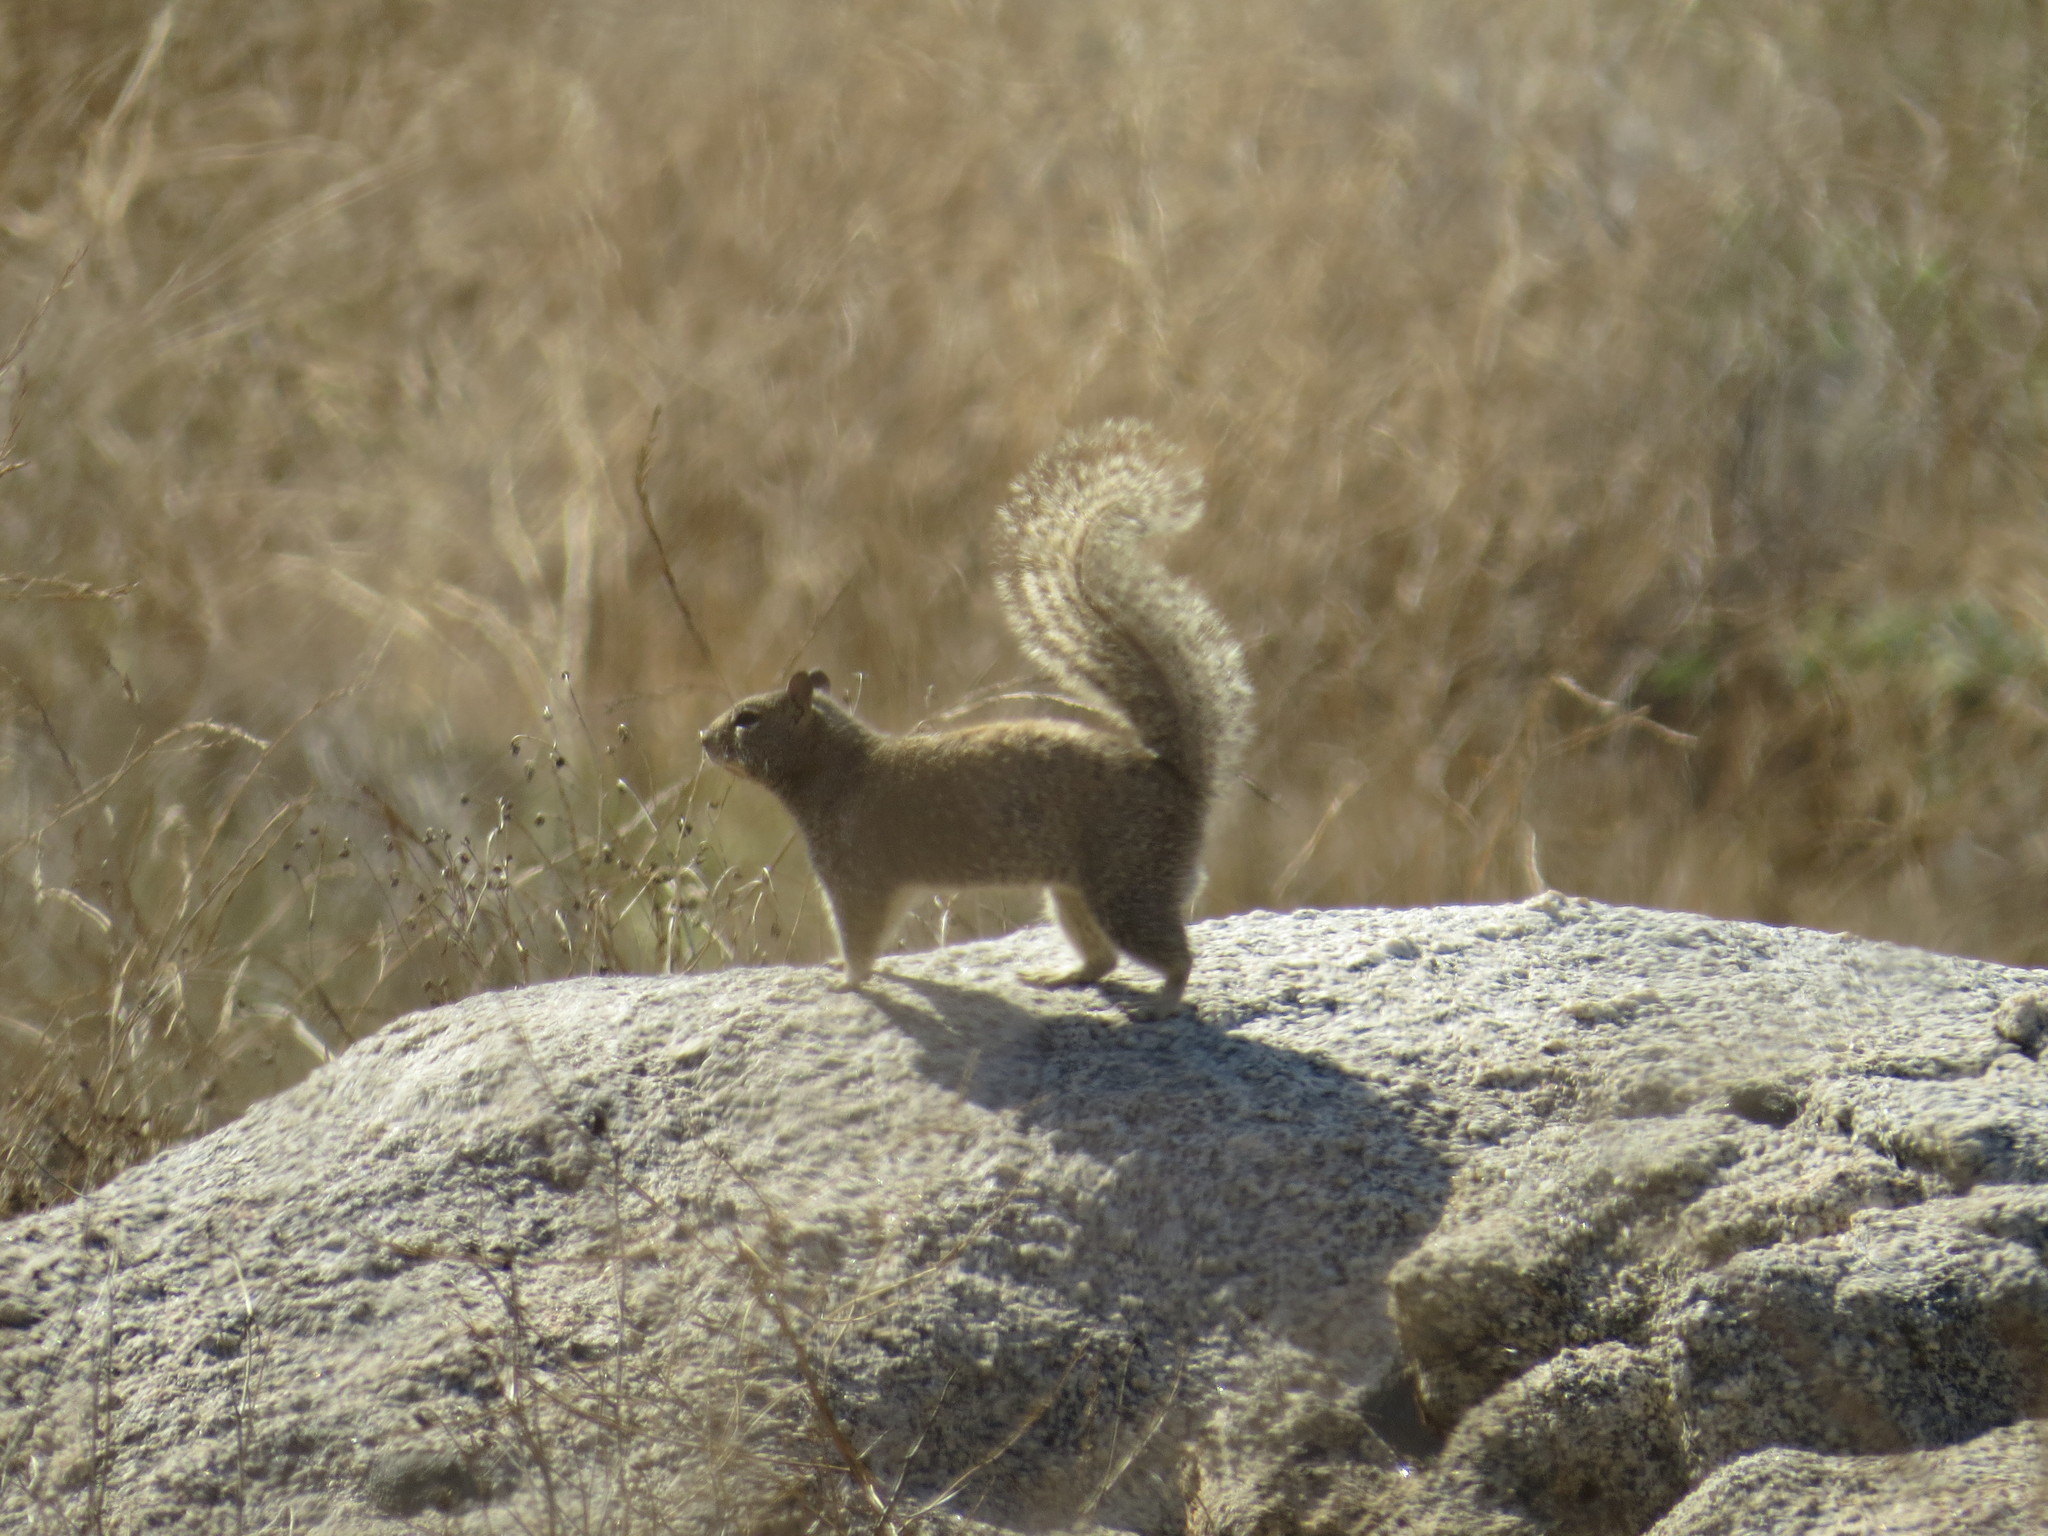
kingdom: Animalia
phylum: Chordata
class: Mammalia
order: Rodentia
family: Sciuridae
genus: Otospermophilus
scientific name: Otospermophilus beecheyi
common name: California ground squirrel
